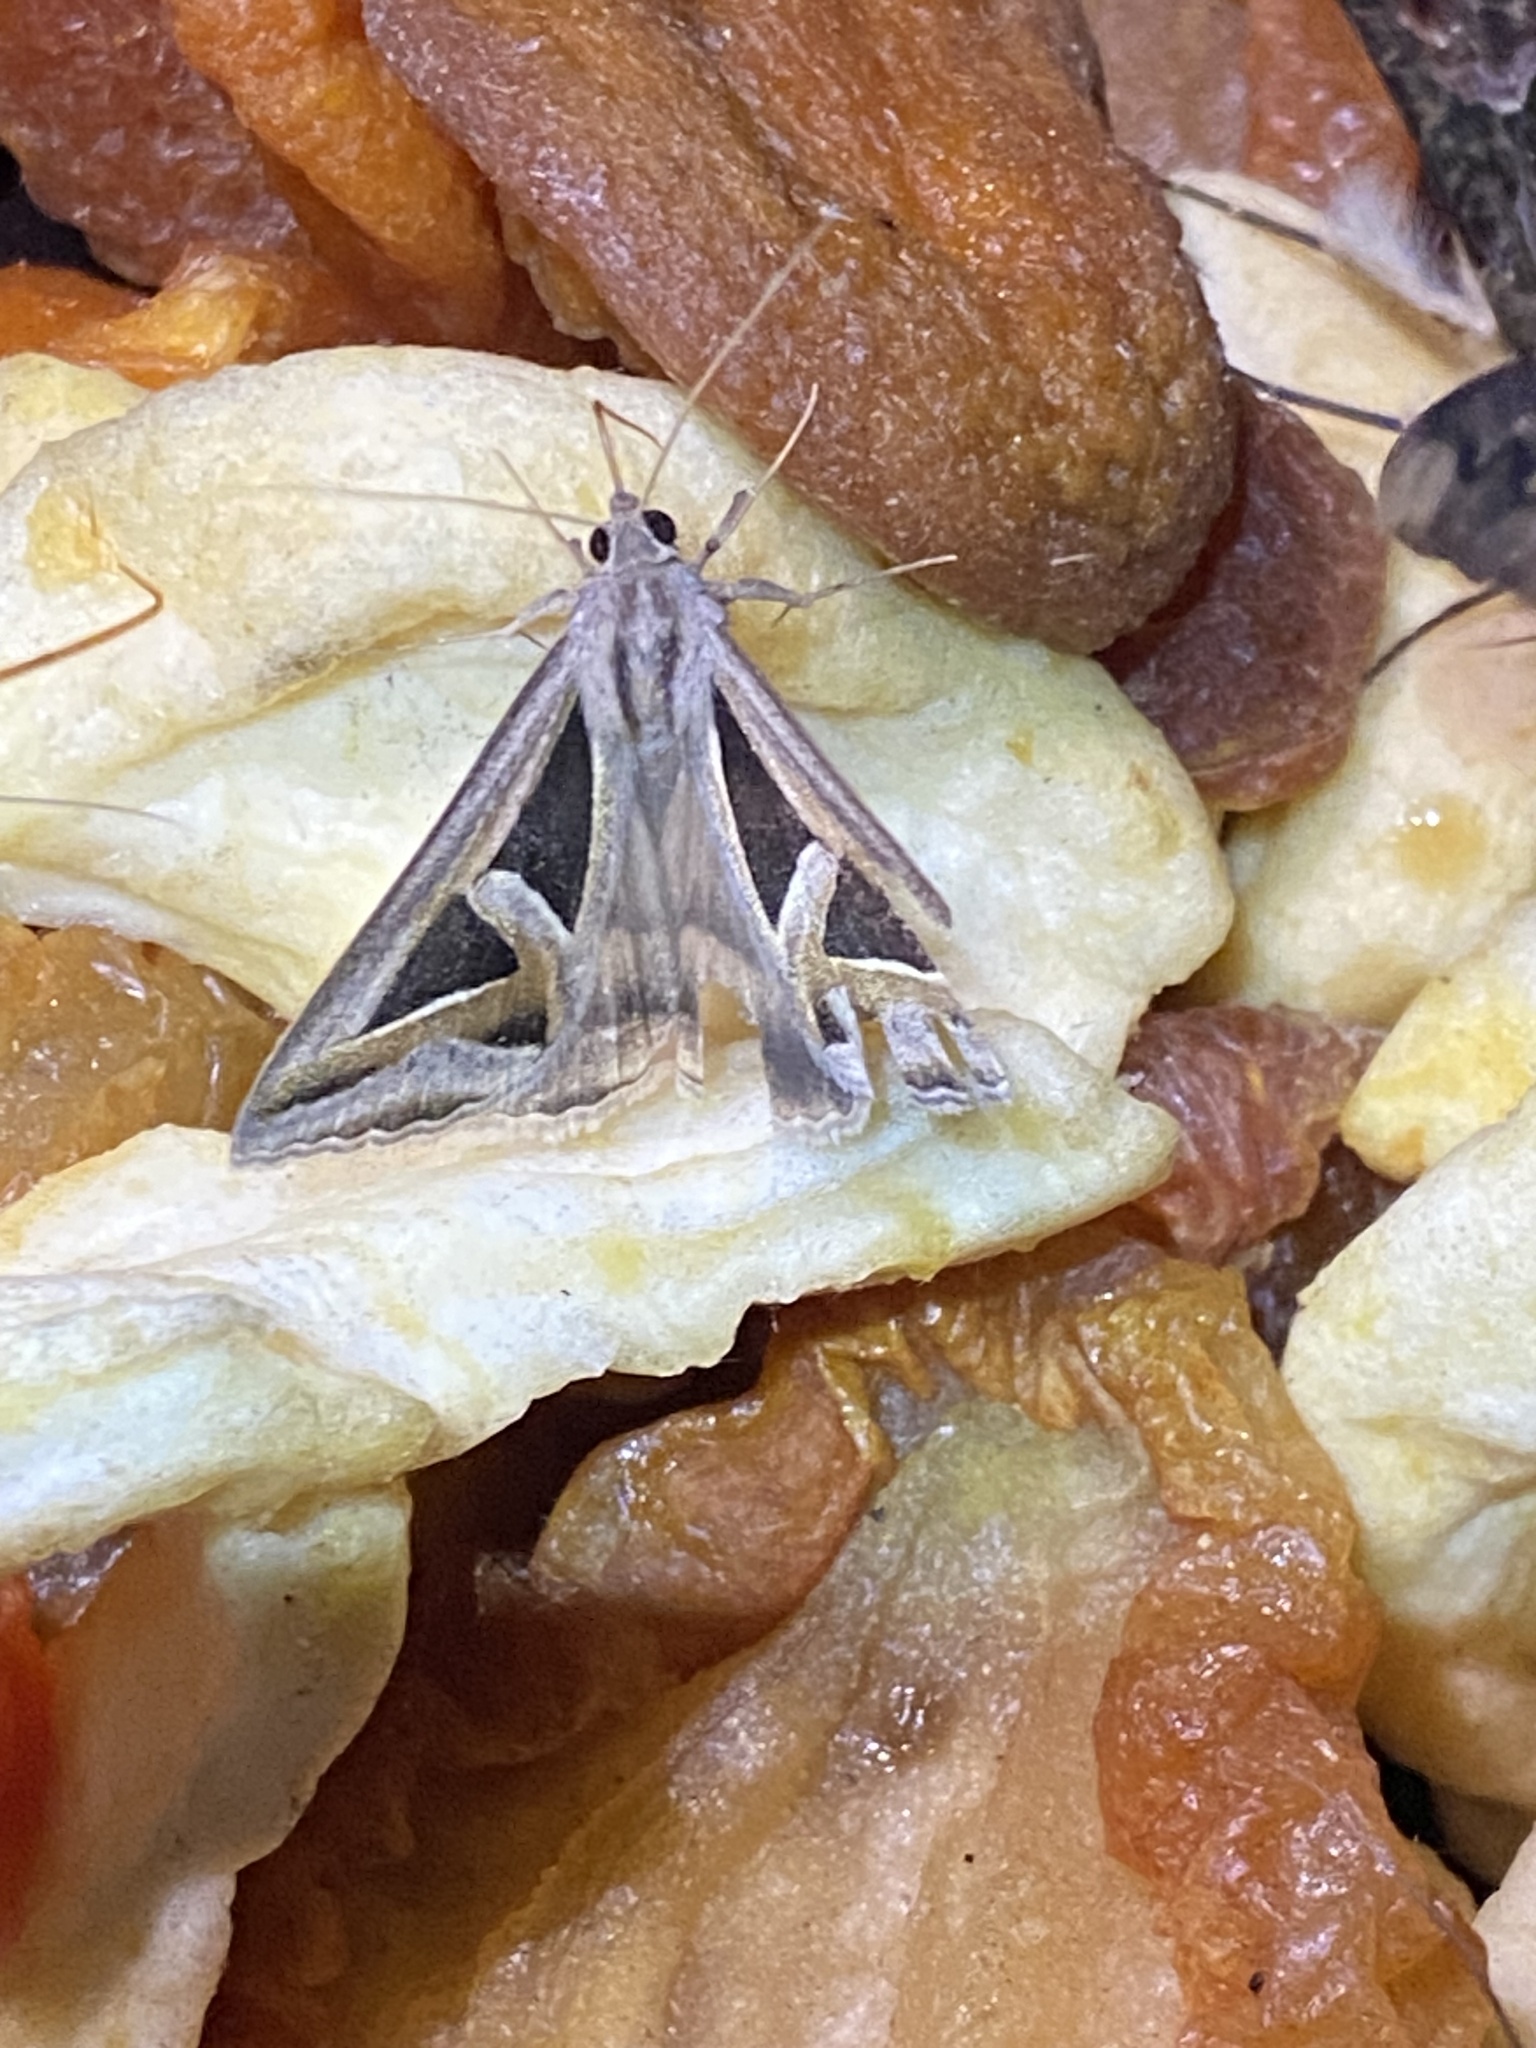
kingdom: Animalia
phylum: Arthropoda
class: Insecta
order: Lepidoptera
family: Erebidae
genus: Trigonodes
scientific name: Trigonodes hyppasia
